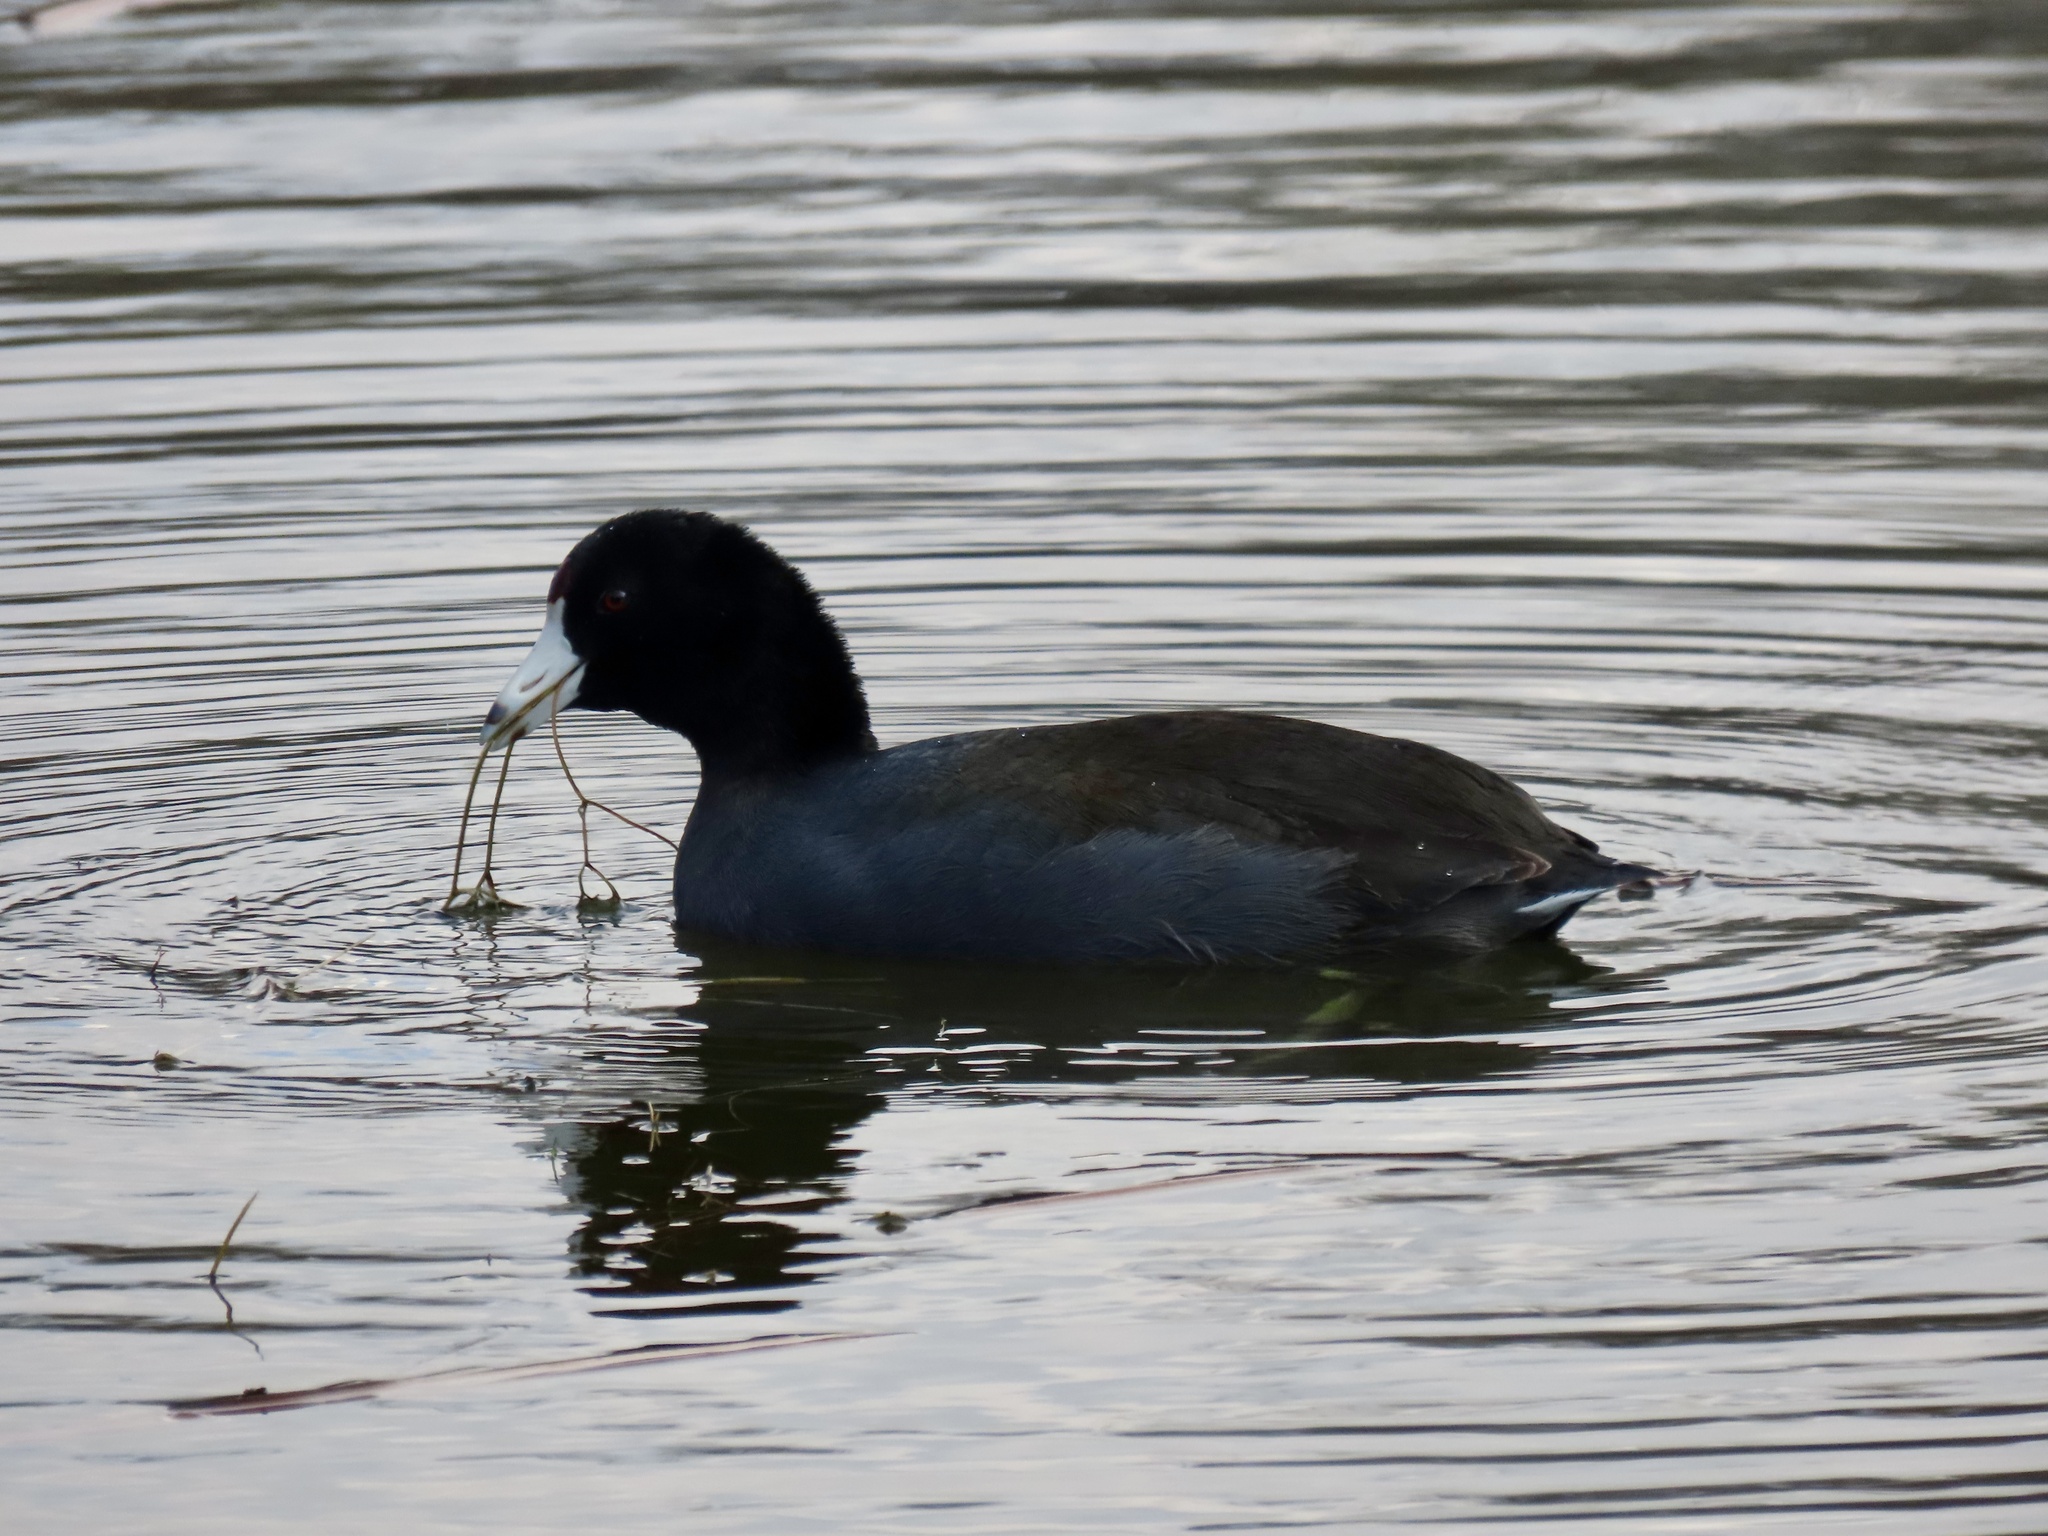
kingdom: Animalia
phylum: Chordata
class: Aves
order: Gruiformes
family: Rallidae
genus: Fulica
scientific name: Fulica americana
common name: American coot
